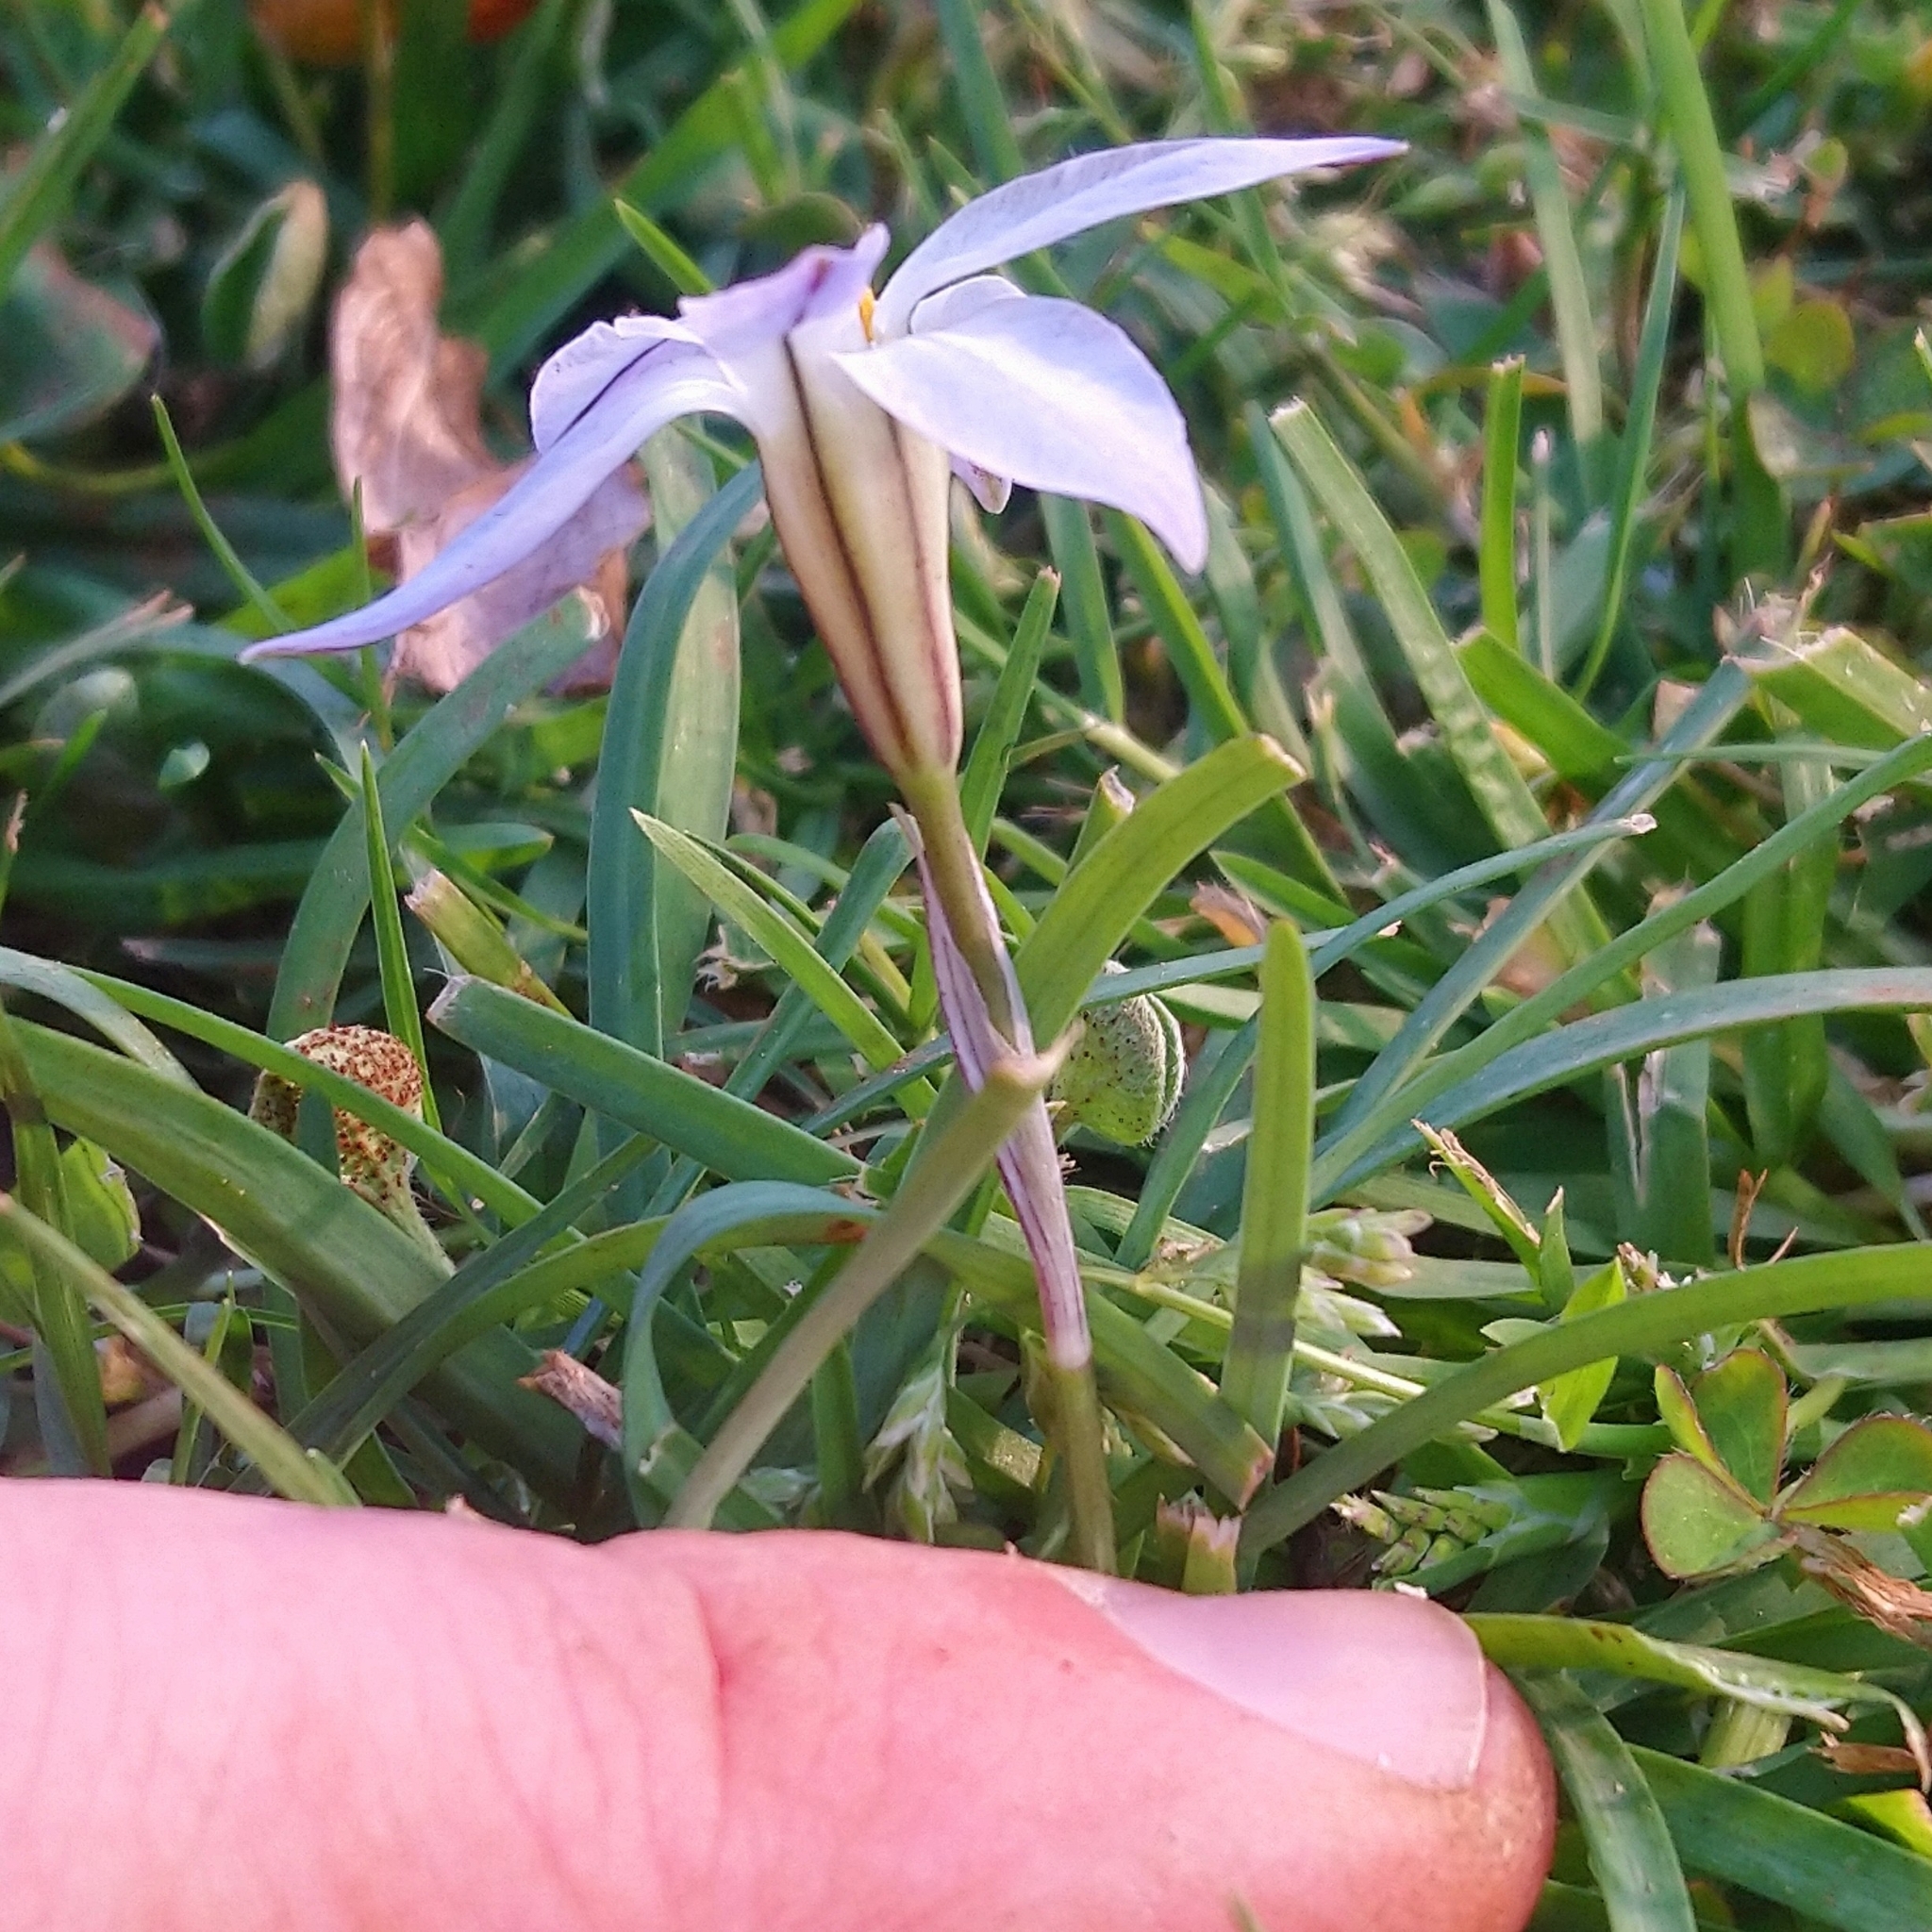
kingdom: Plantae
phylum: Tracheophyta
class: Liliopsida
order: Asparagales
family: Amaryllidaceae
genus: Ipheion
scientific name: Ipheion uniflorum
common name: Spring starflower
